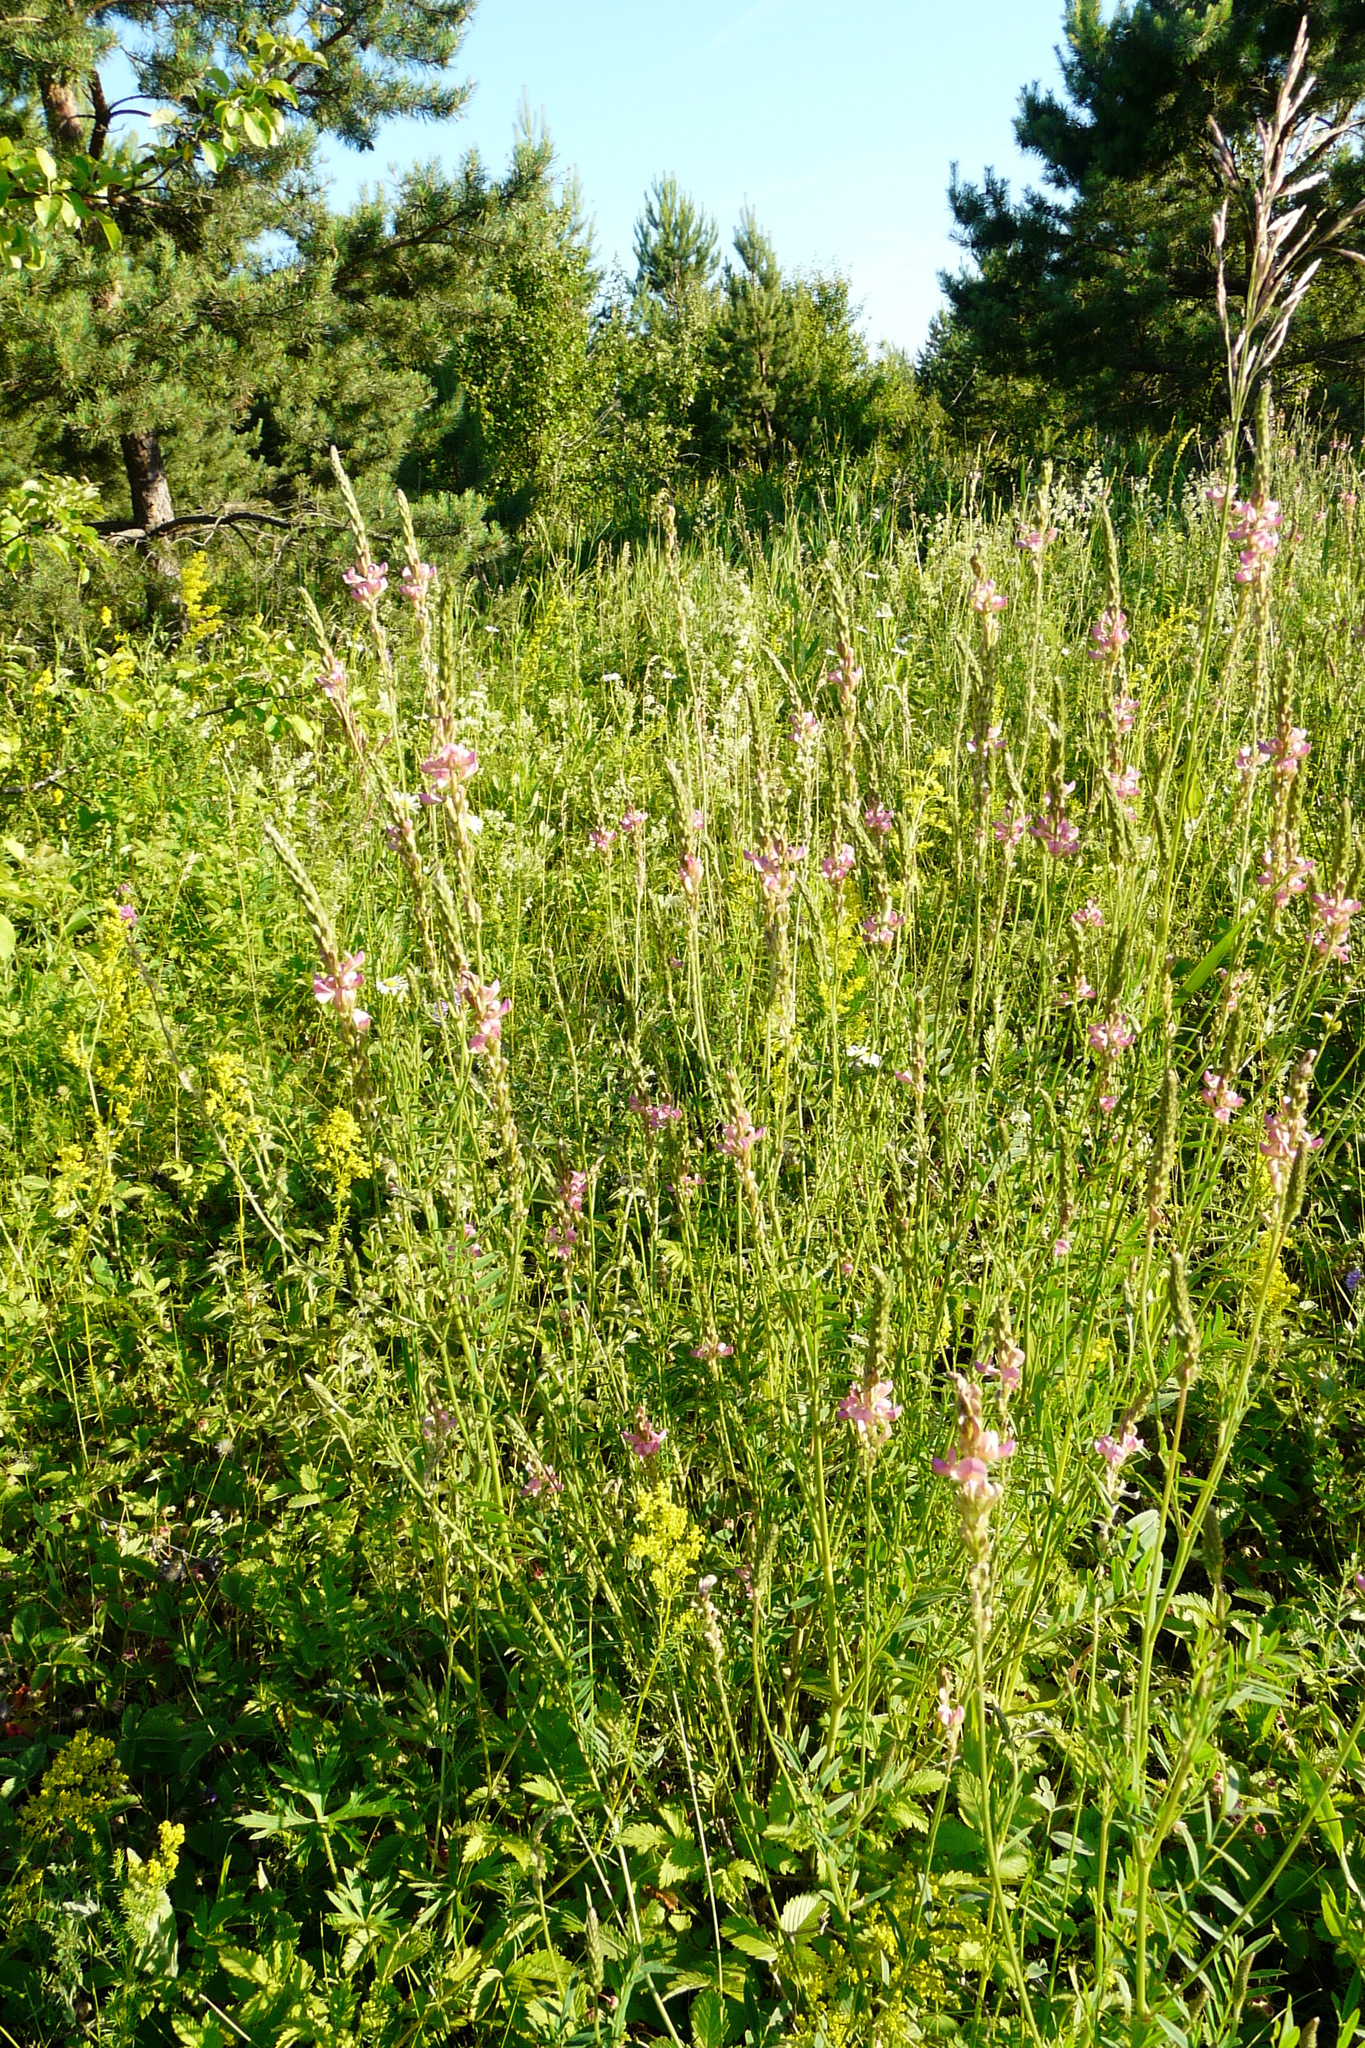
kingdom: Plantae
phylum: Tracheophyta
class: Magnoliopsida
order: Fabales
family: Fabaceae
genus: Onobrychis
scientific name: Onobrychis viciifolia
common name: Sainfoin
